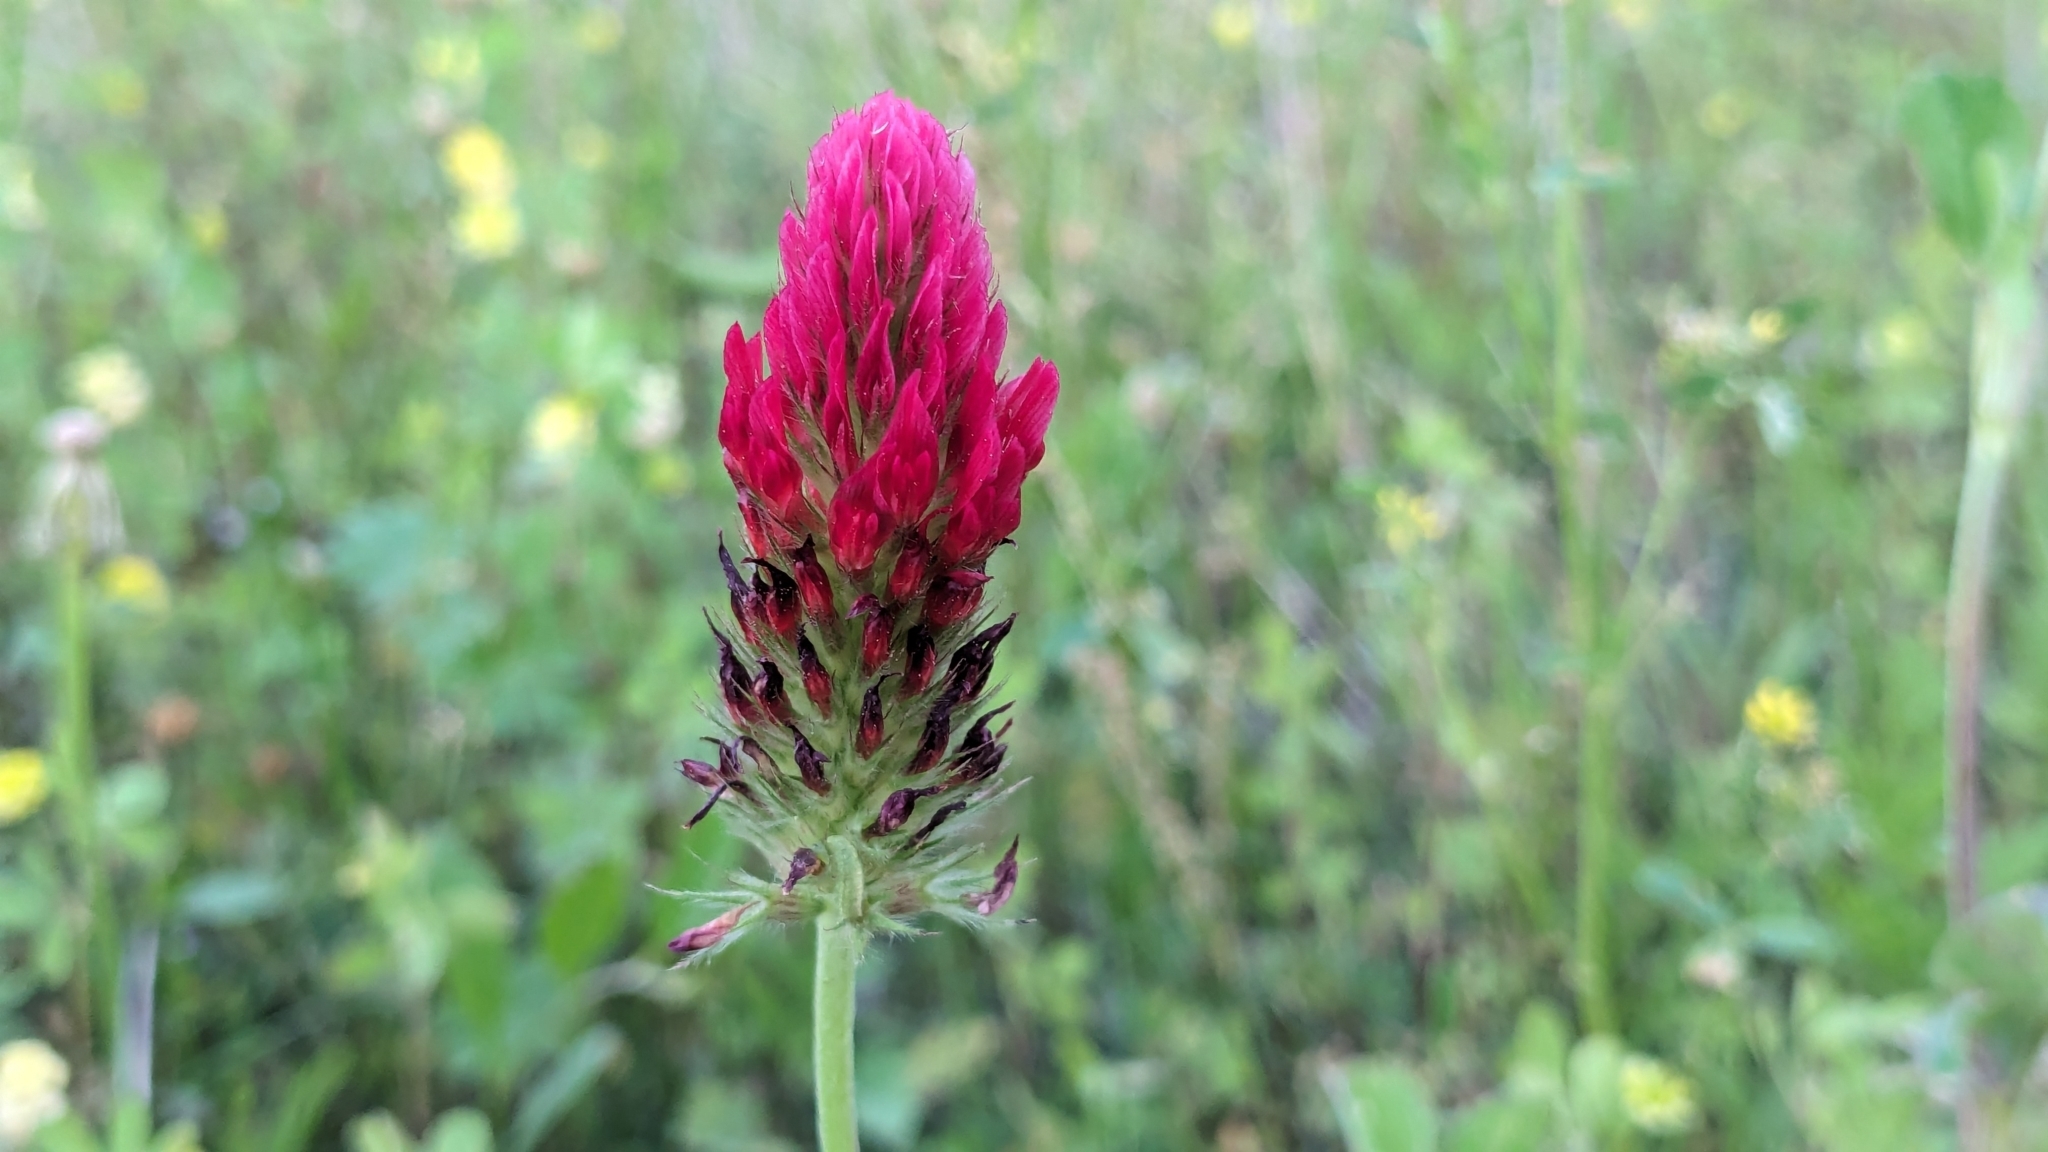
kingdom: Plantae
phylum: Tracheophyta
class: Magnoliopsida
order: Fabales
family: Fabaceae
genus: Trifolium
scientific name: Trifolium incarnatum
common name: Crimson clover
